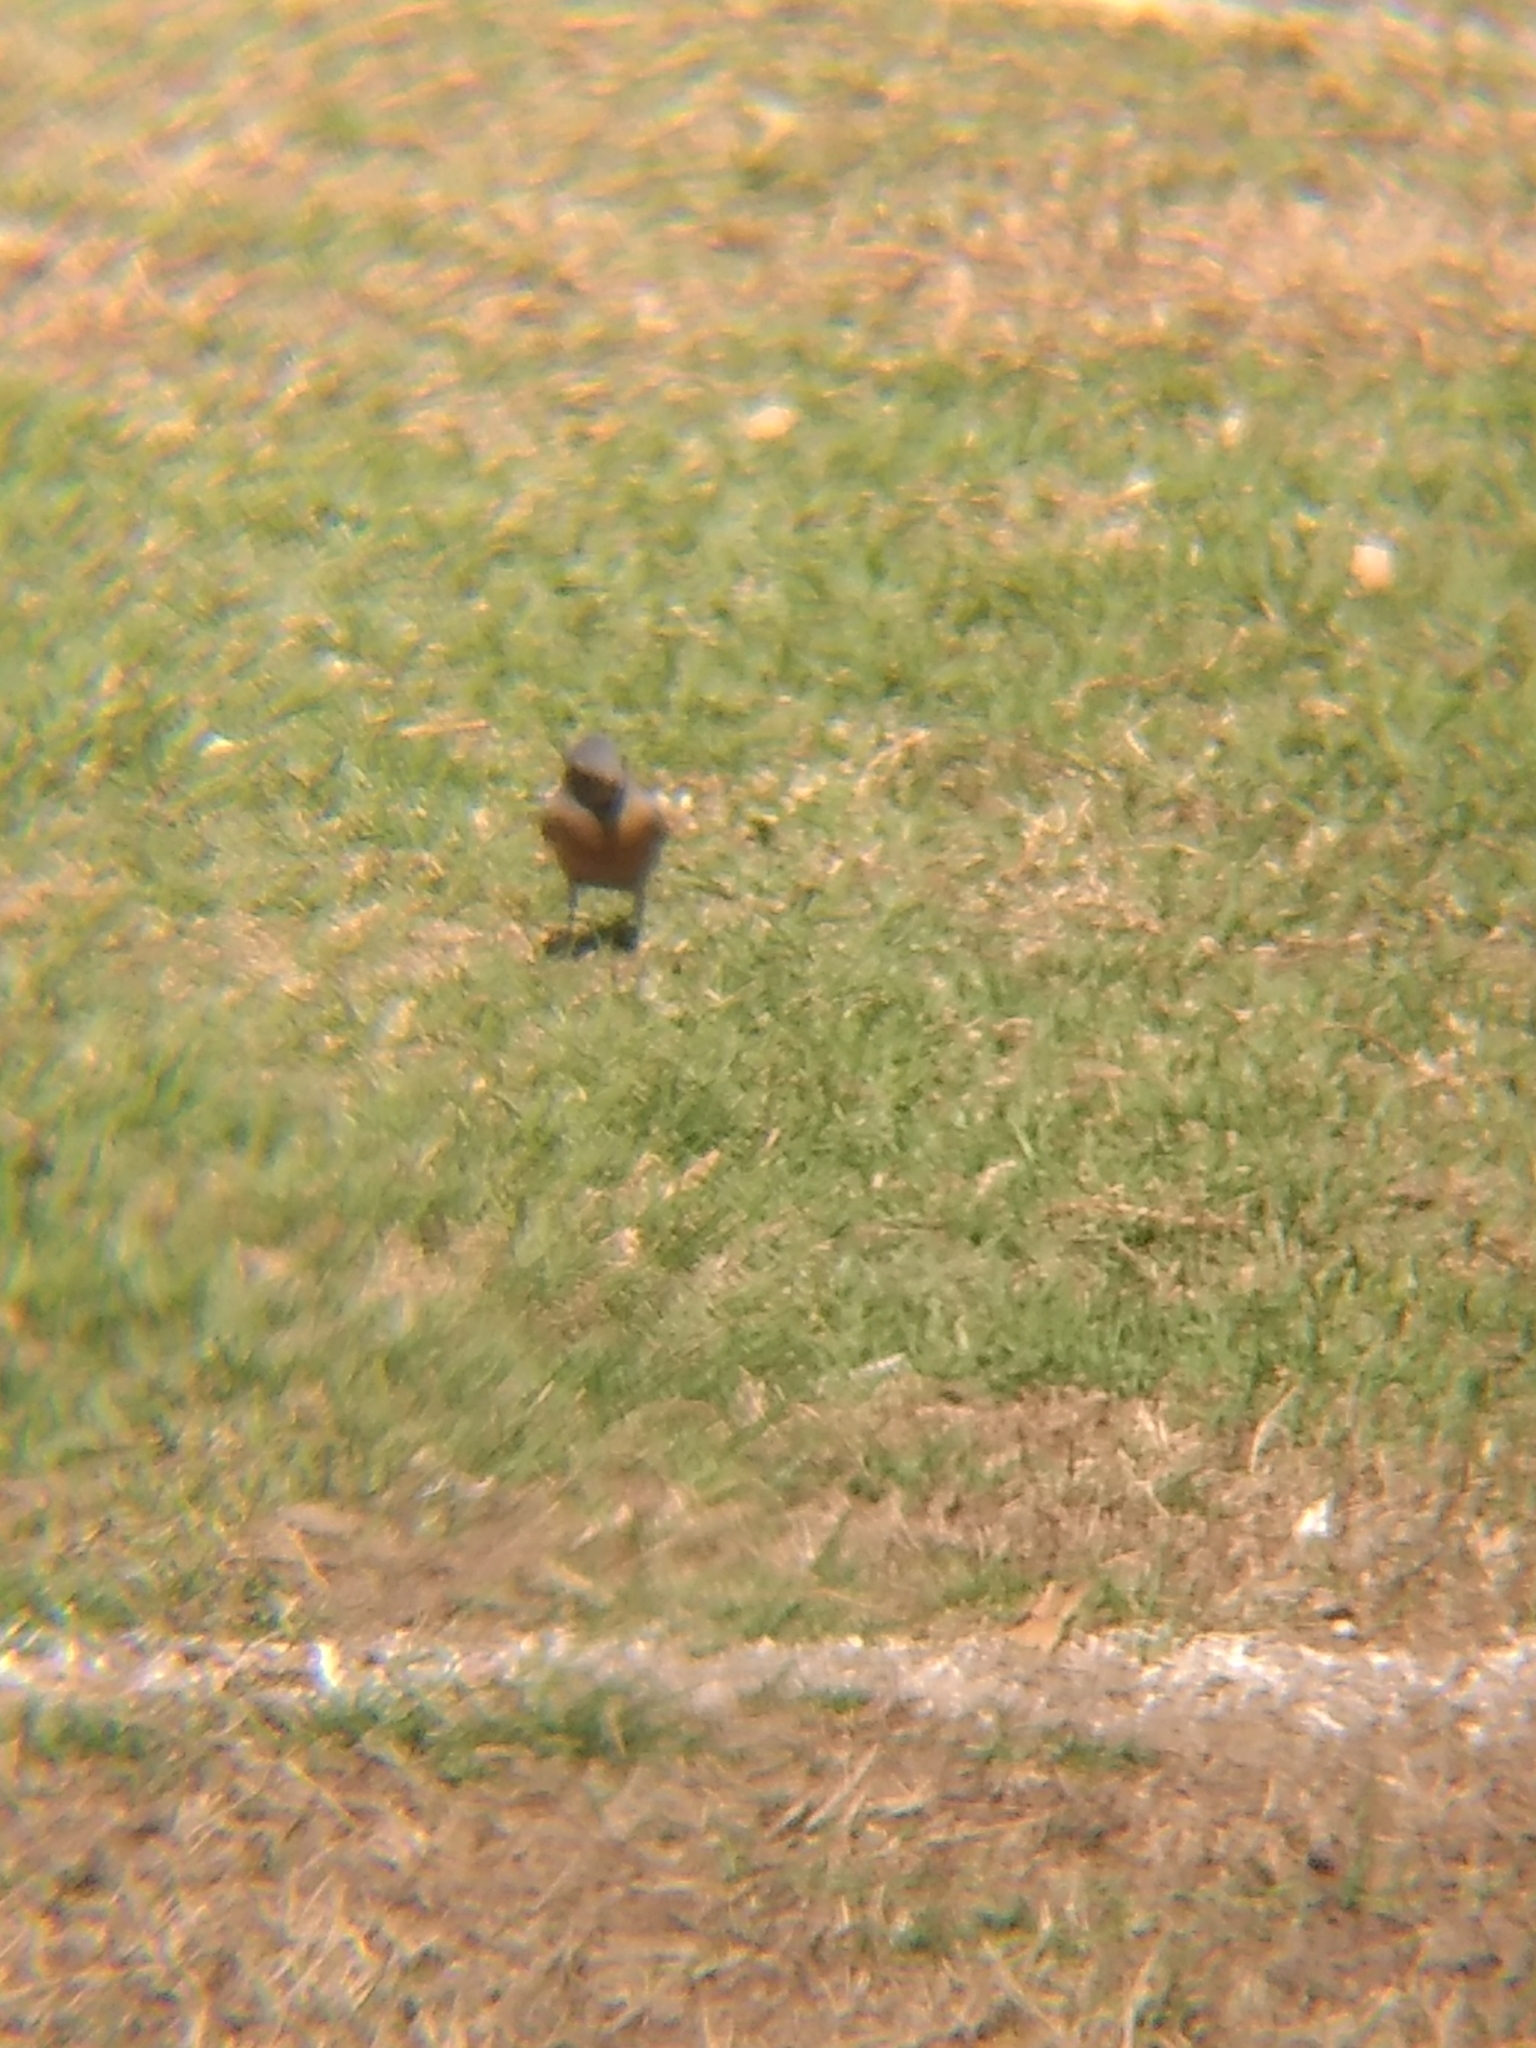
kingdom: Animalia
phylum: Chordata
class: Aves
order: Passeriformes
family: Turdidae
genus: Sialia
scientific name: Sialia mexicana
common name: Western bluebird
